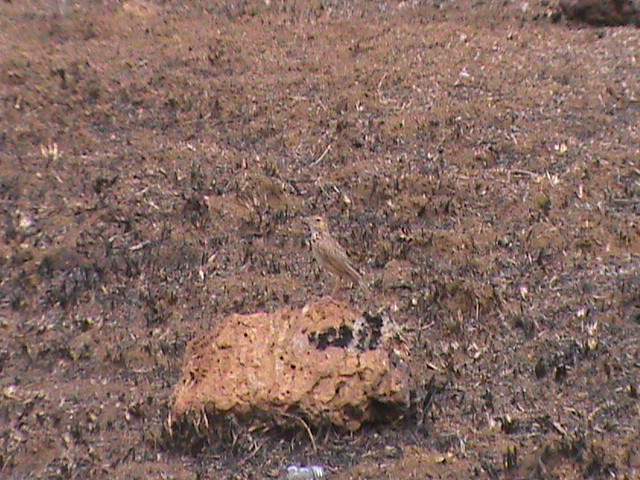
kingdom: Animalia
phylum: Chordata
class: Aves
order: Passeriformes
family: Alaudidae
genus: Mirafra
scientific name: Mirafra affinis
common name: Jerdon's bushlark
